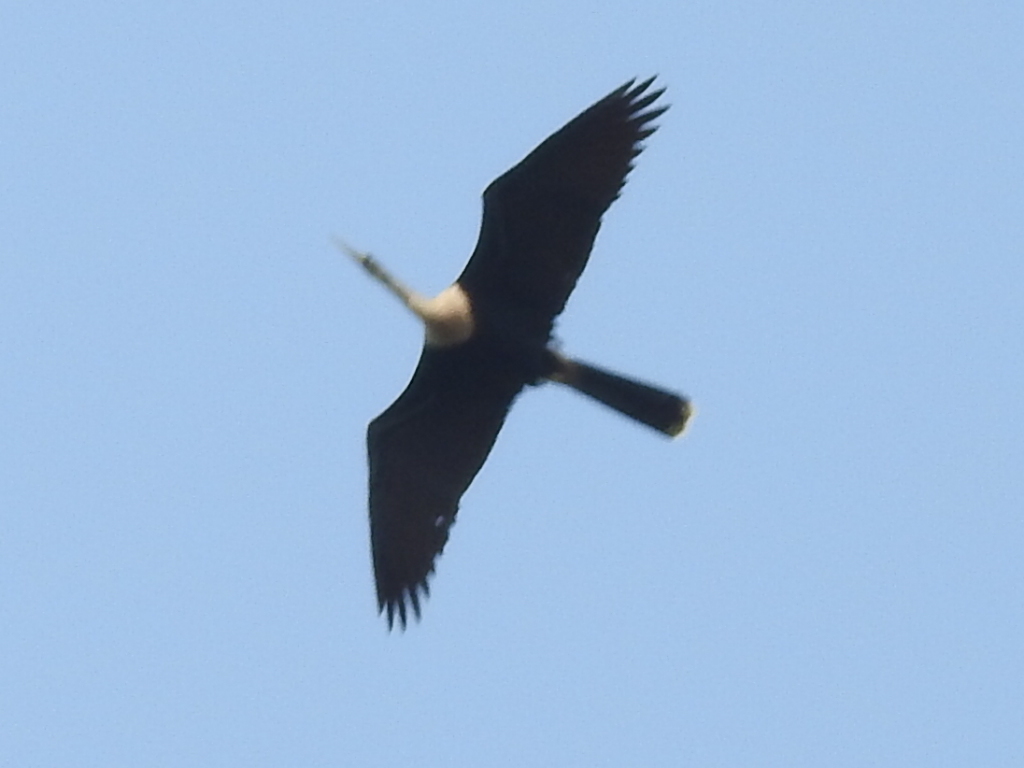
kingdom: Animalia
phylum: Chordata
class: Aves
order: Suliformes
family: Anhingidae
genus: Anhinga
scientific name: Anhinga anhinga
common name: Anhinga
